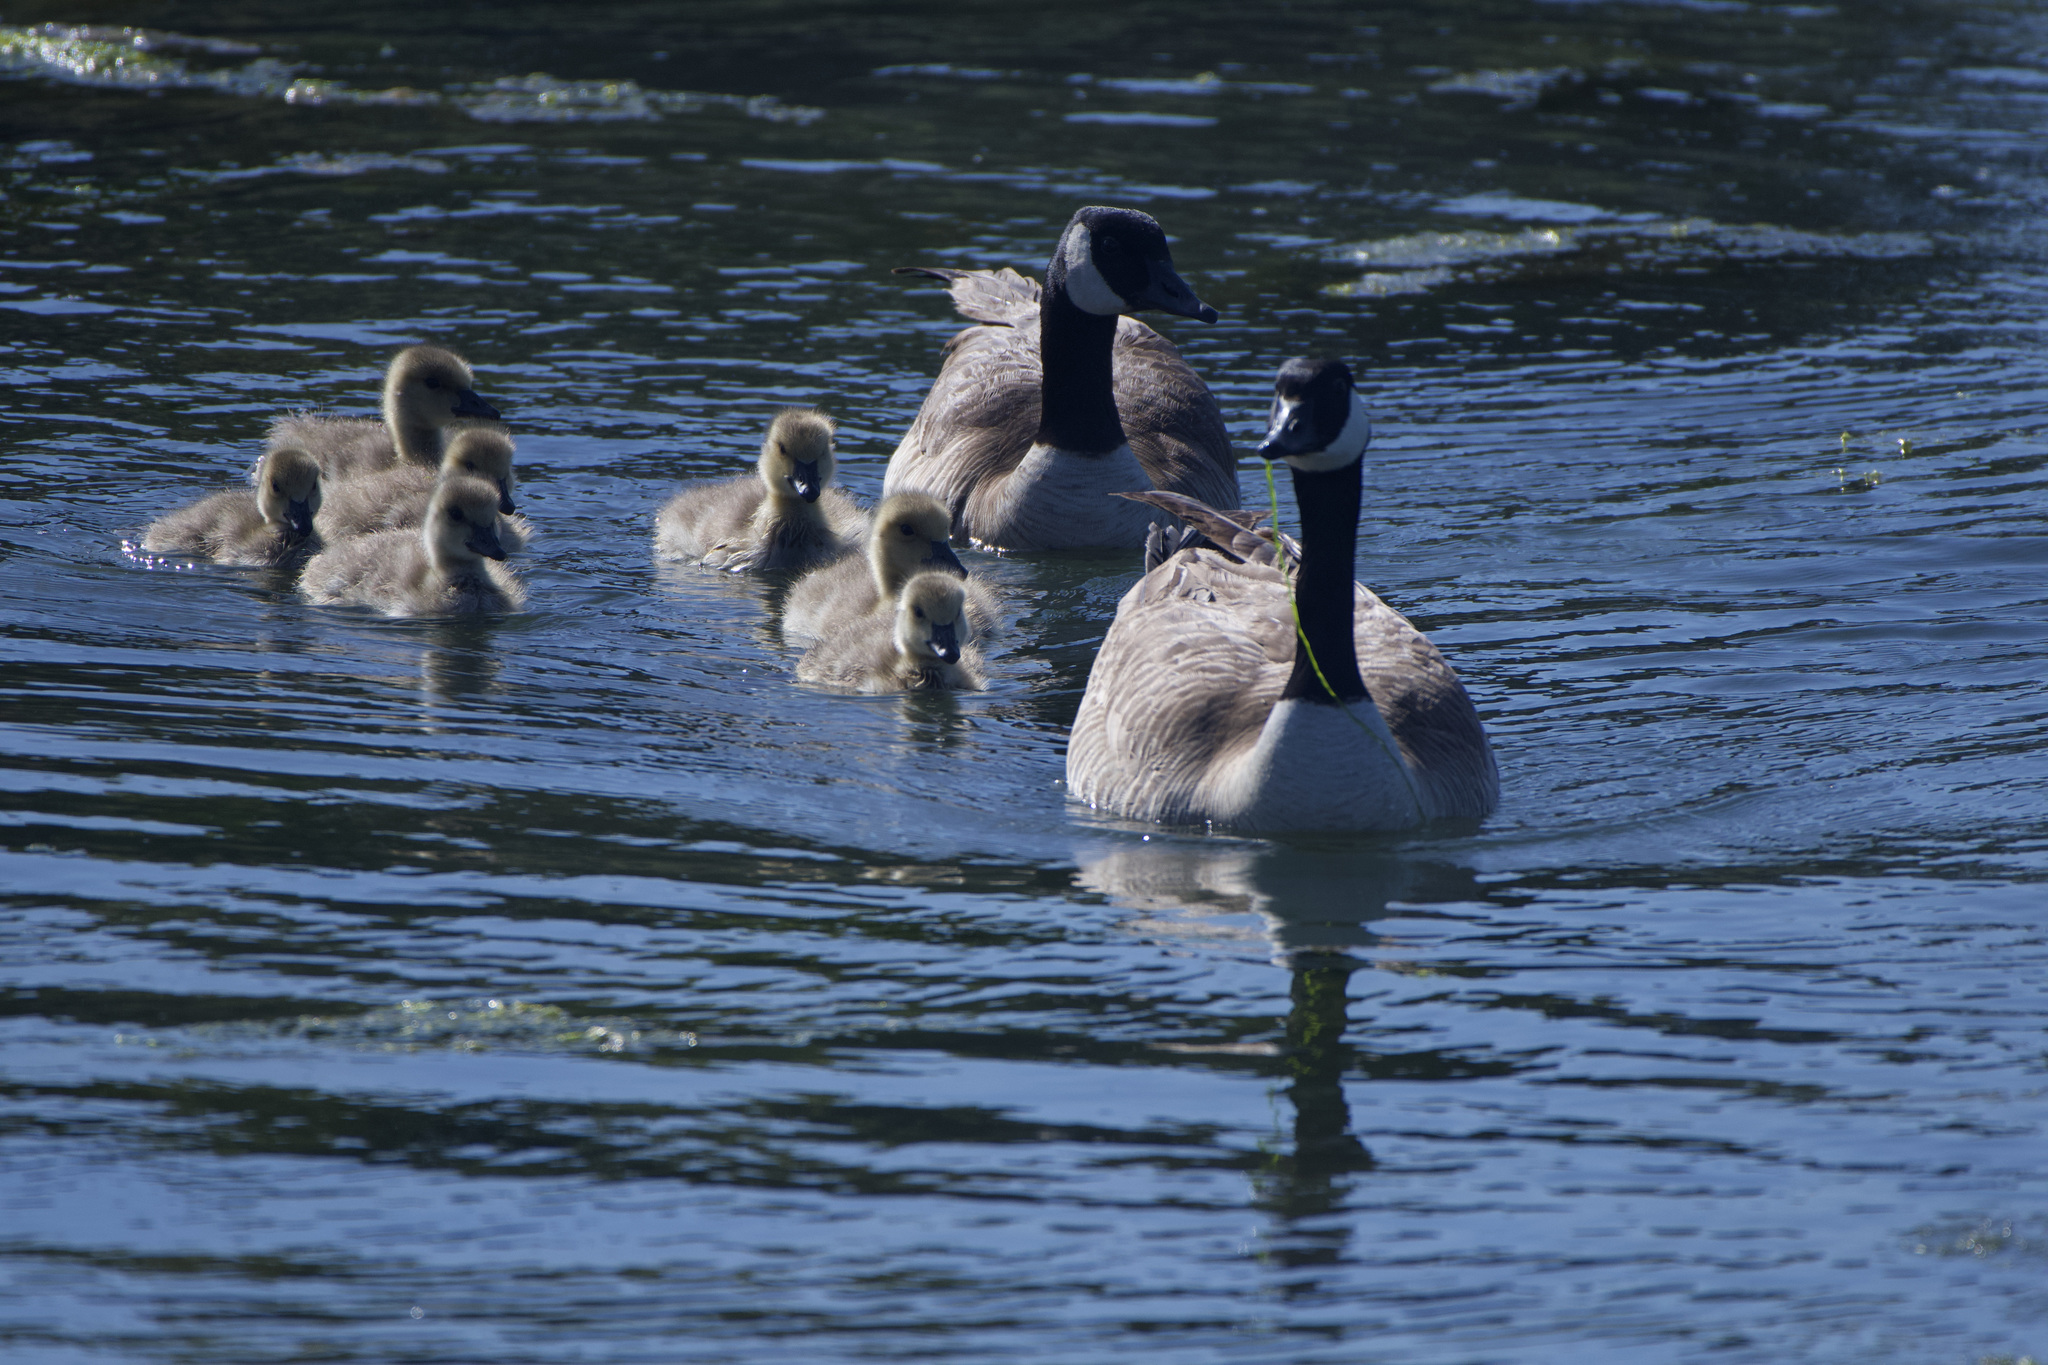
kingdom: Animalia
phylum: Chordata
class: Aves
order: Anseriformes
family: Anatidae
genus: Branta
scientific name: Branta canadensis
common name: Canada goose
